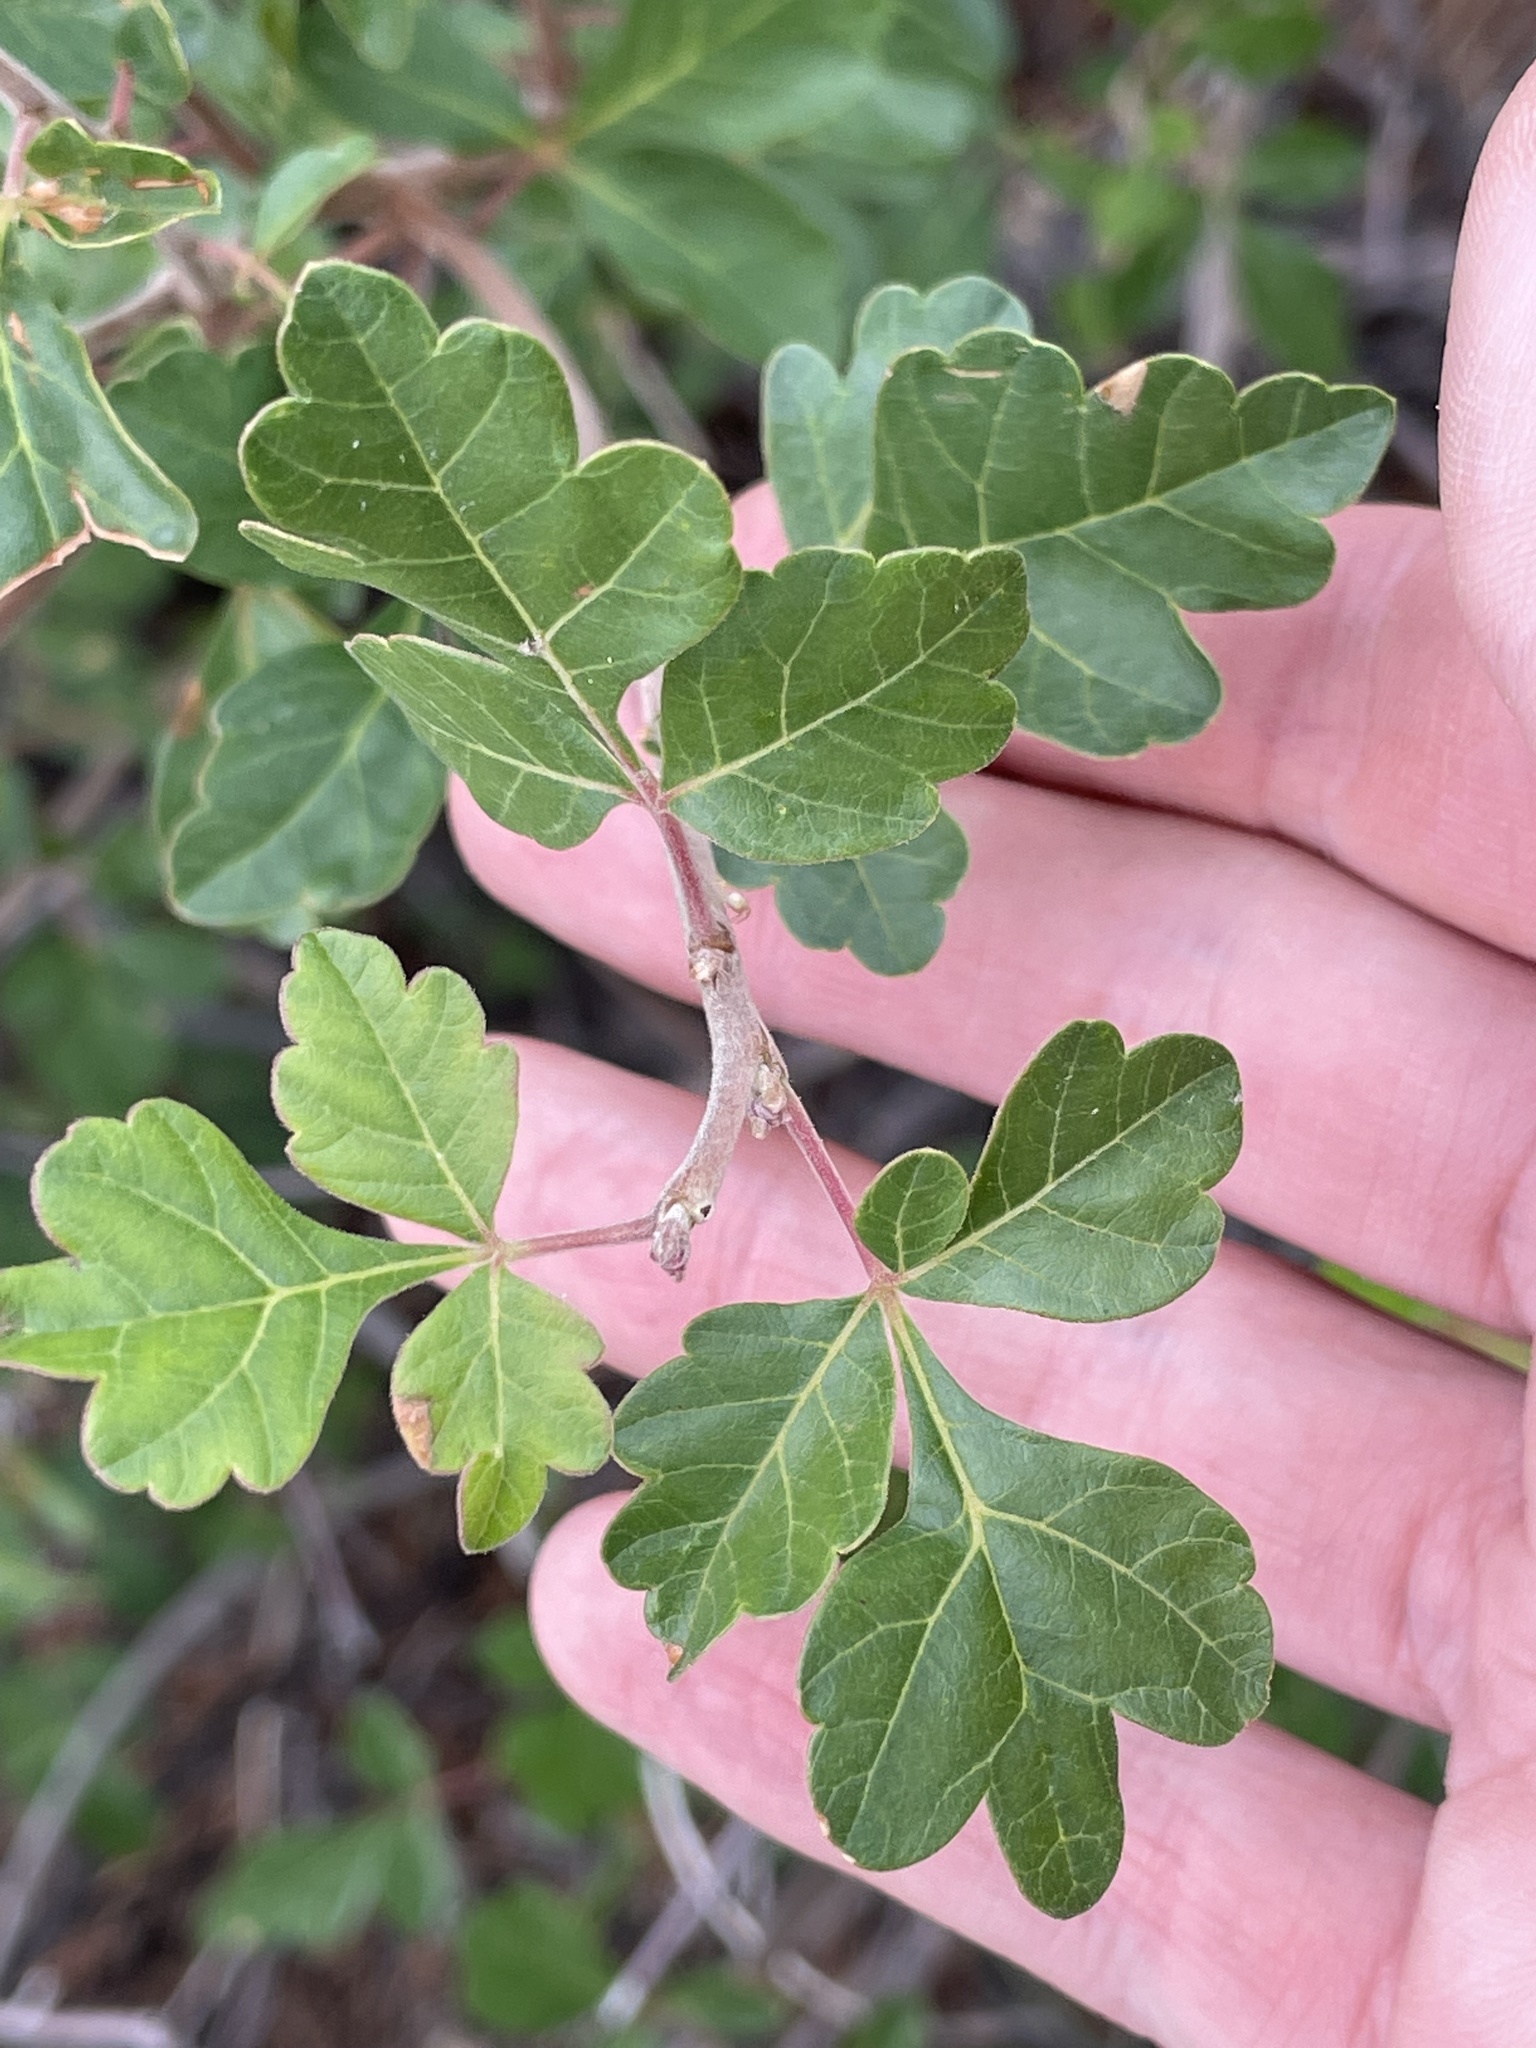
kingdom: Plantae
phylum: Tracheophyta
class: Magnoliopsida
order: Sapindales
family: Anacardiaceae
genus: Rhus
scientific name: Rhus trilobata
